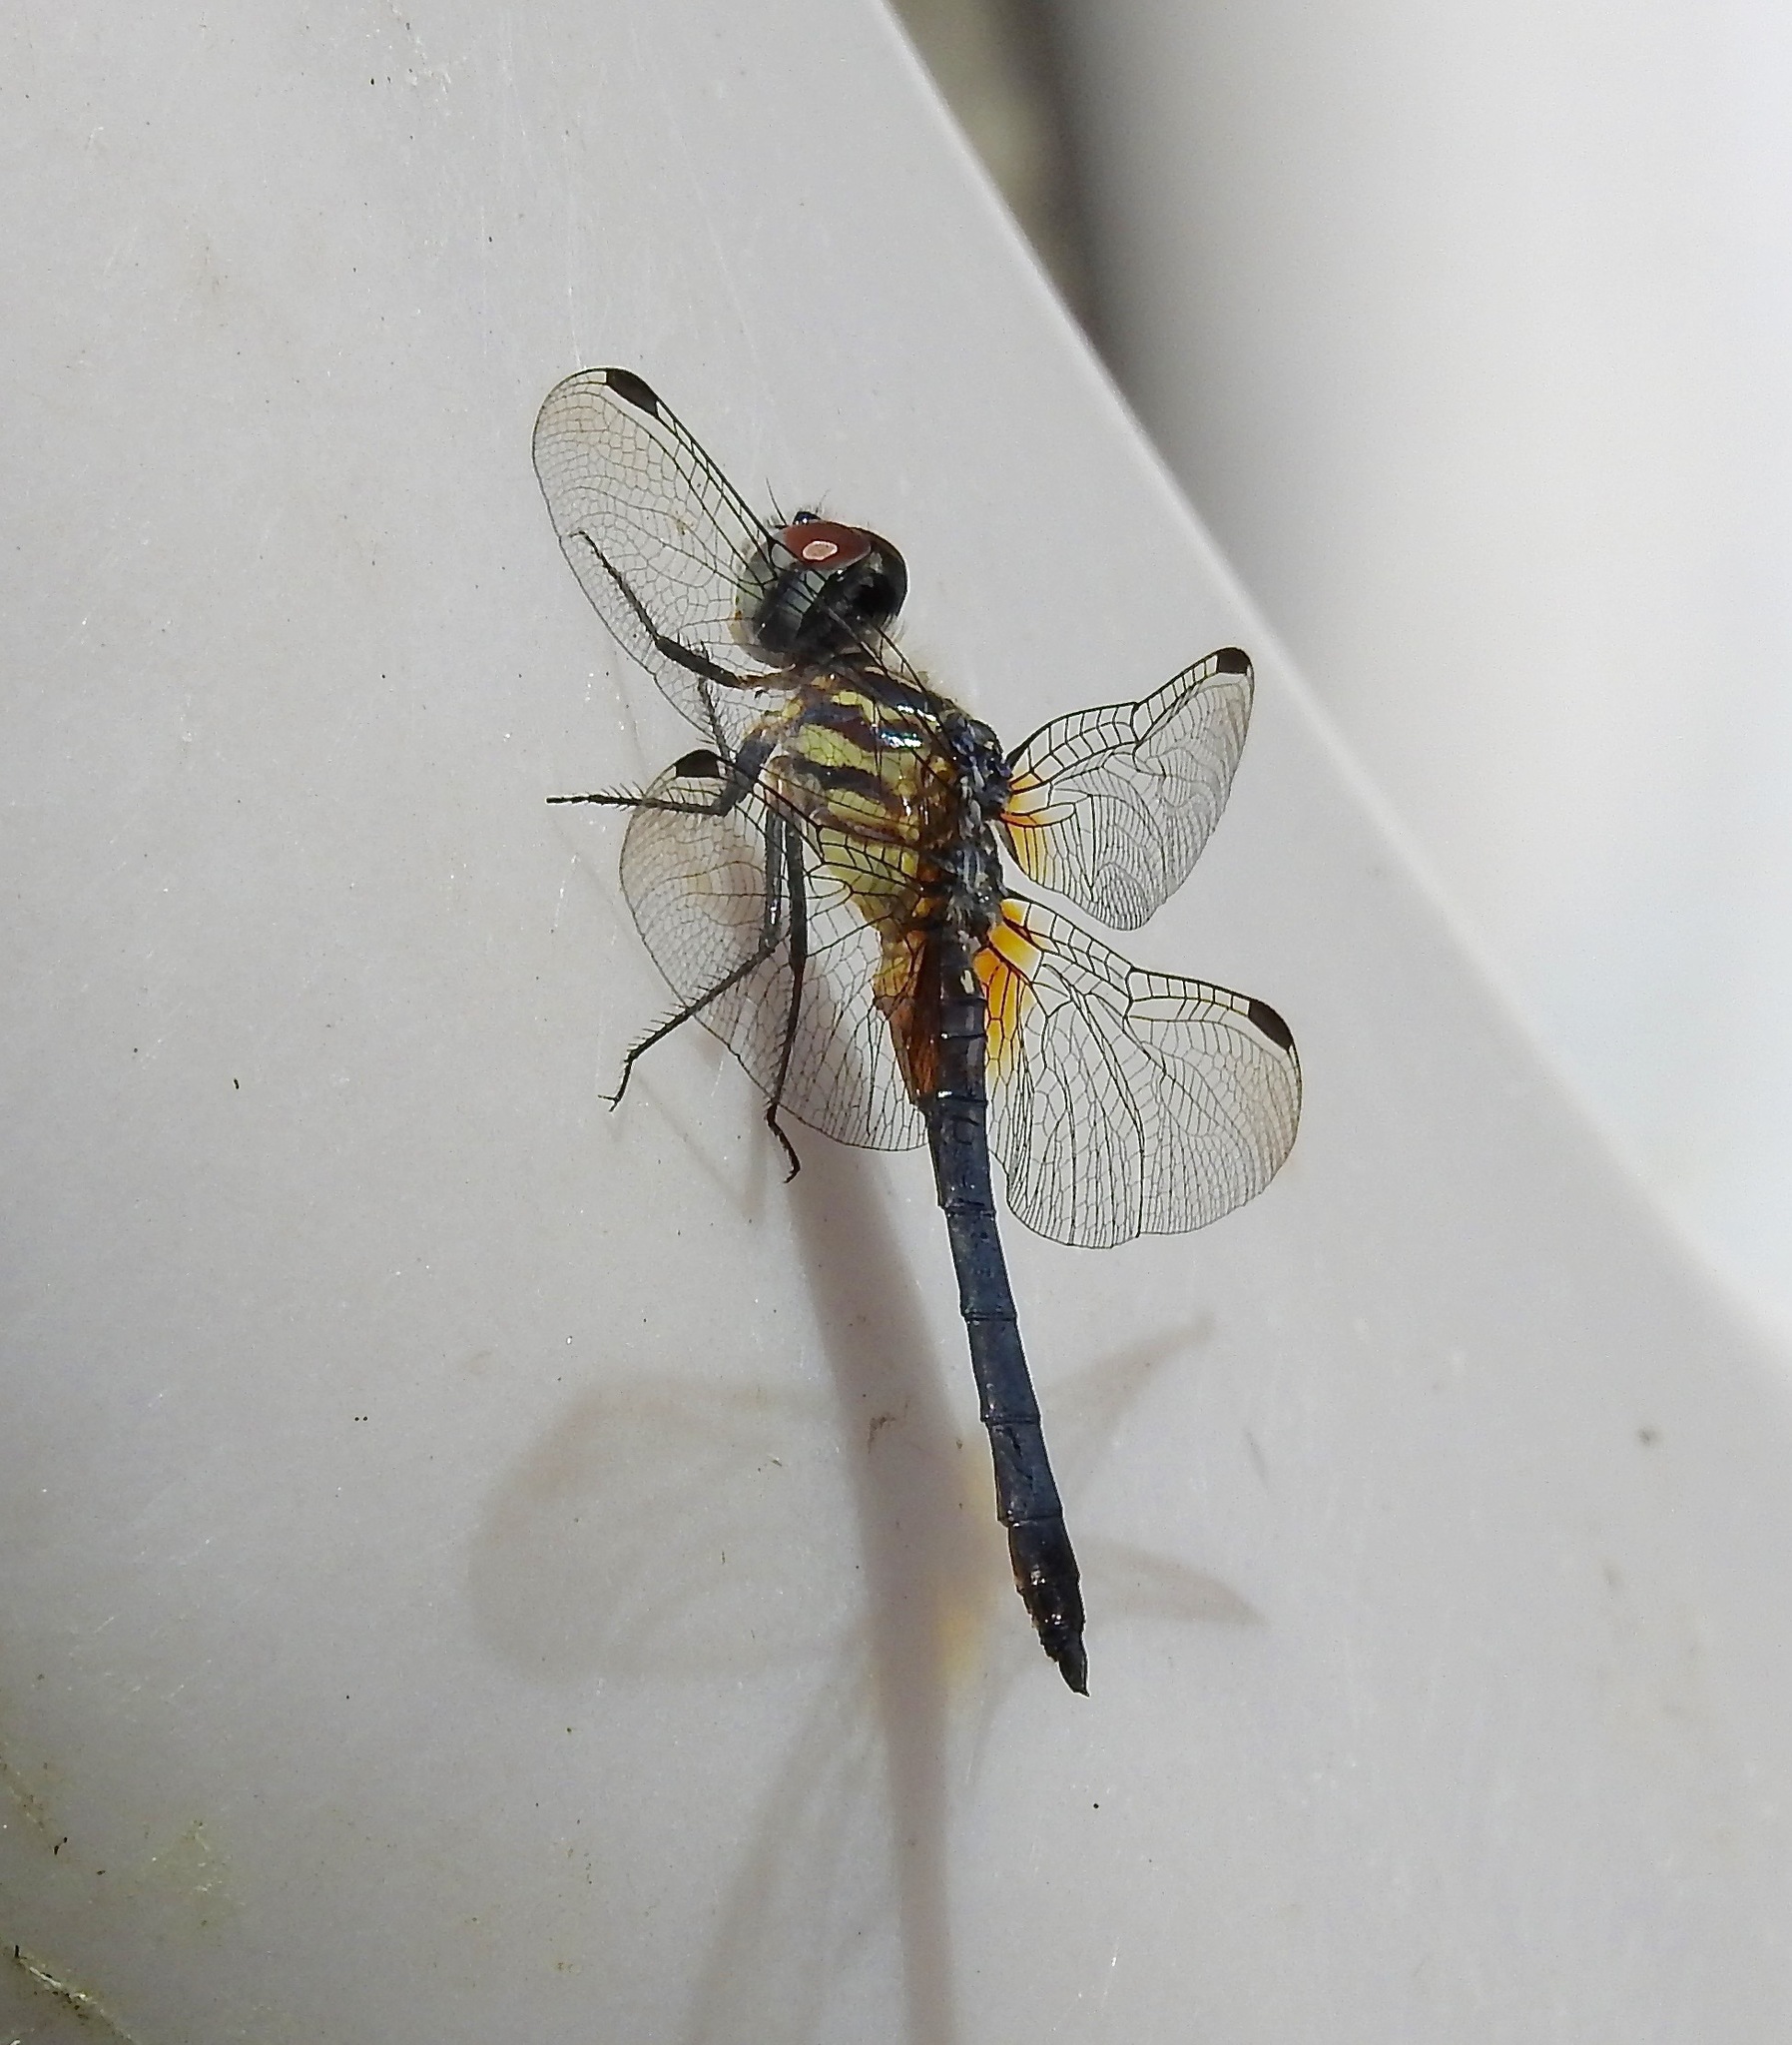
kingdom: Animalia
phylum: Arthropoda
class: Insecta
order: Odonata
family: Libellulidae
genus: Pachydiplax
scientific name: Pachydiplax longipennis
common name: Blue dasher
